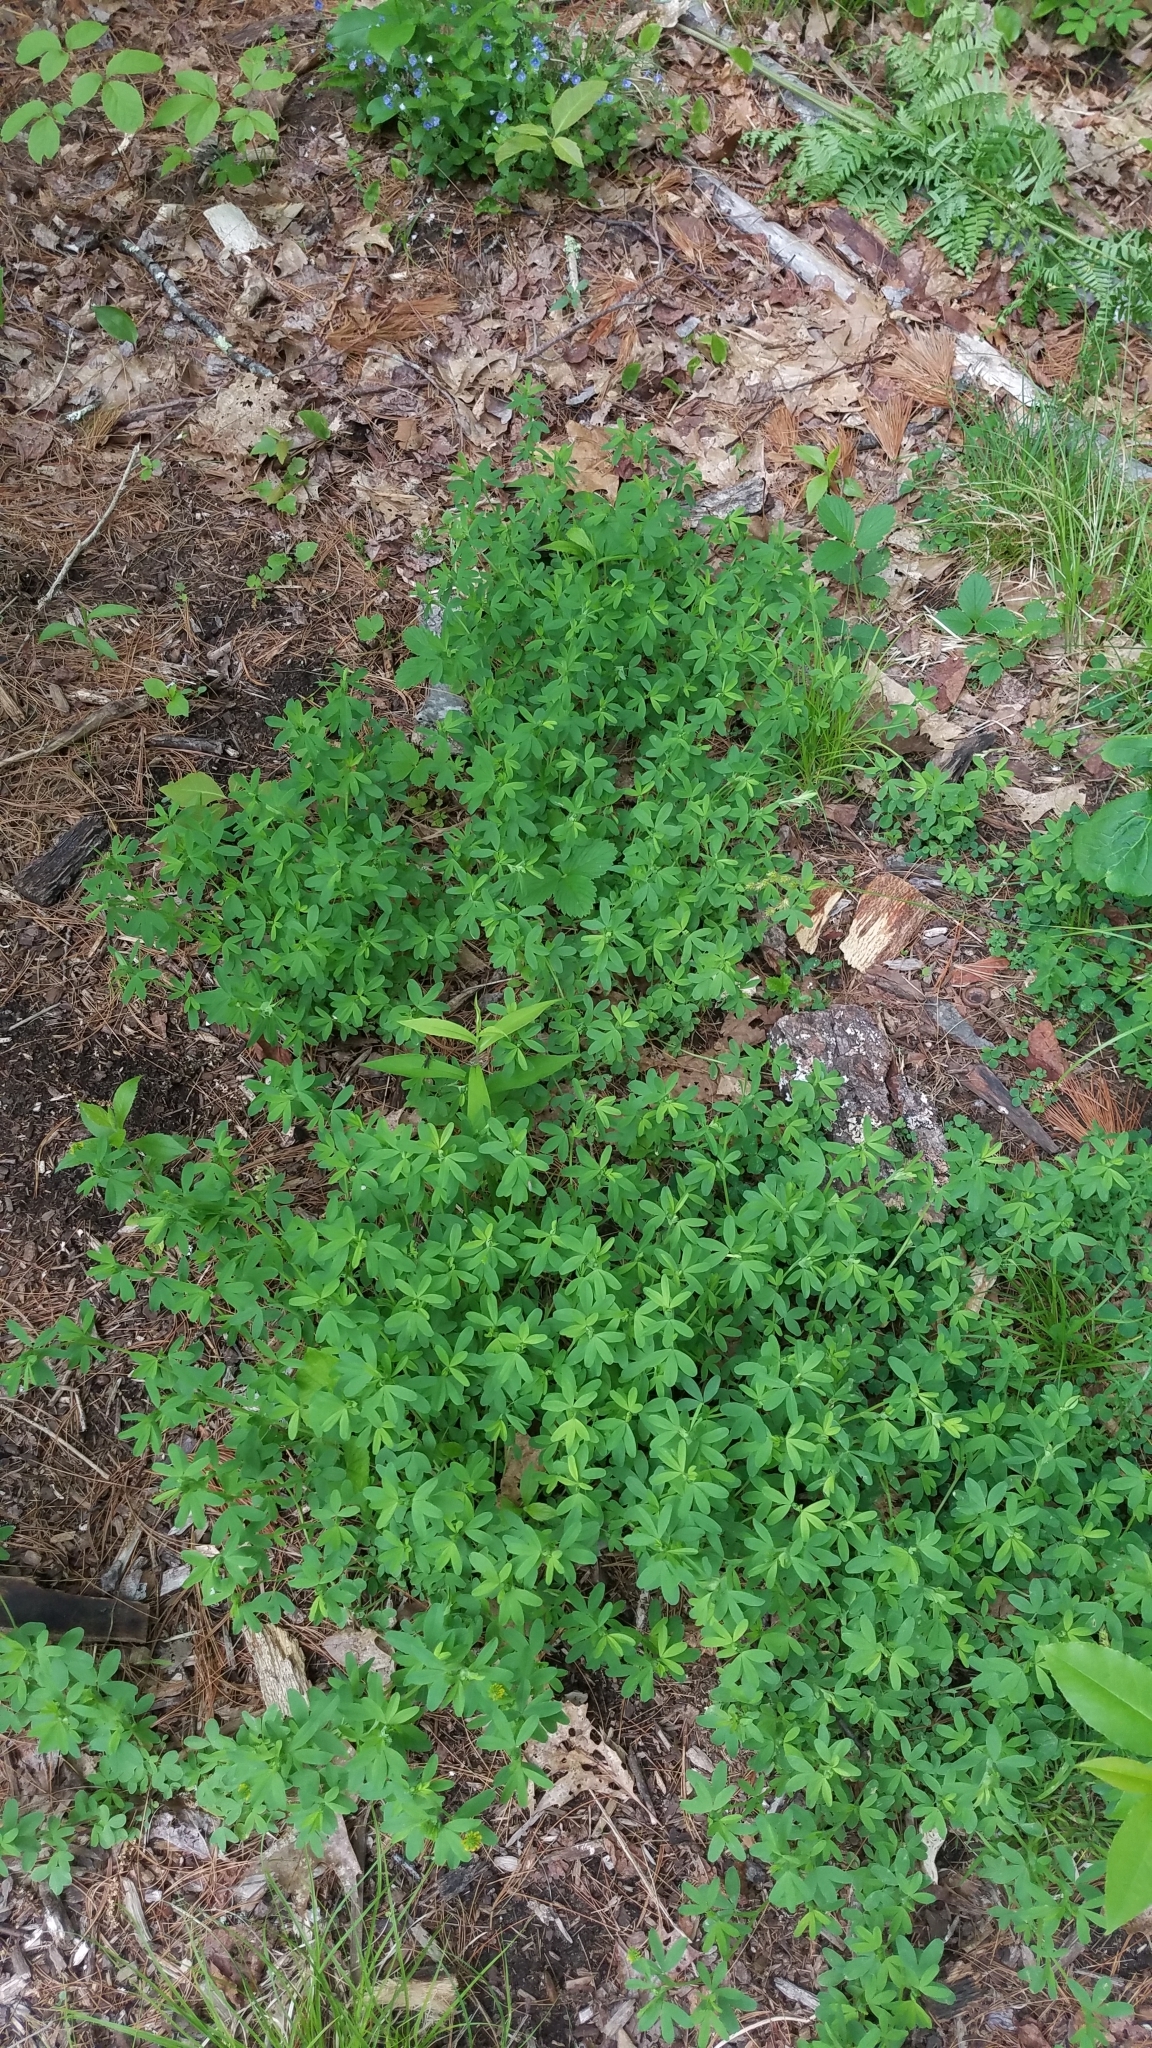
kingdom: Plantae
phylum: Tracheophyta
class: Magnoliopsida
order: Fabales
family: Fabaceae
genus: Trifolium
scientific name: Trifolium aureum
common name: Golden clover
